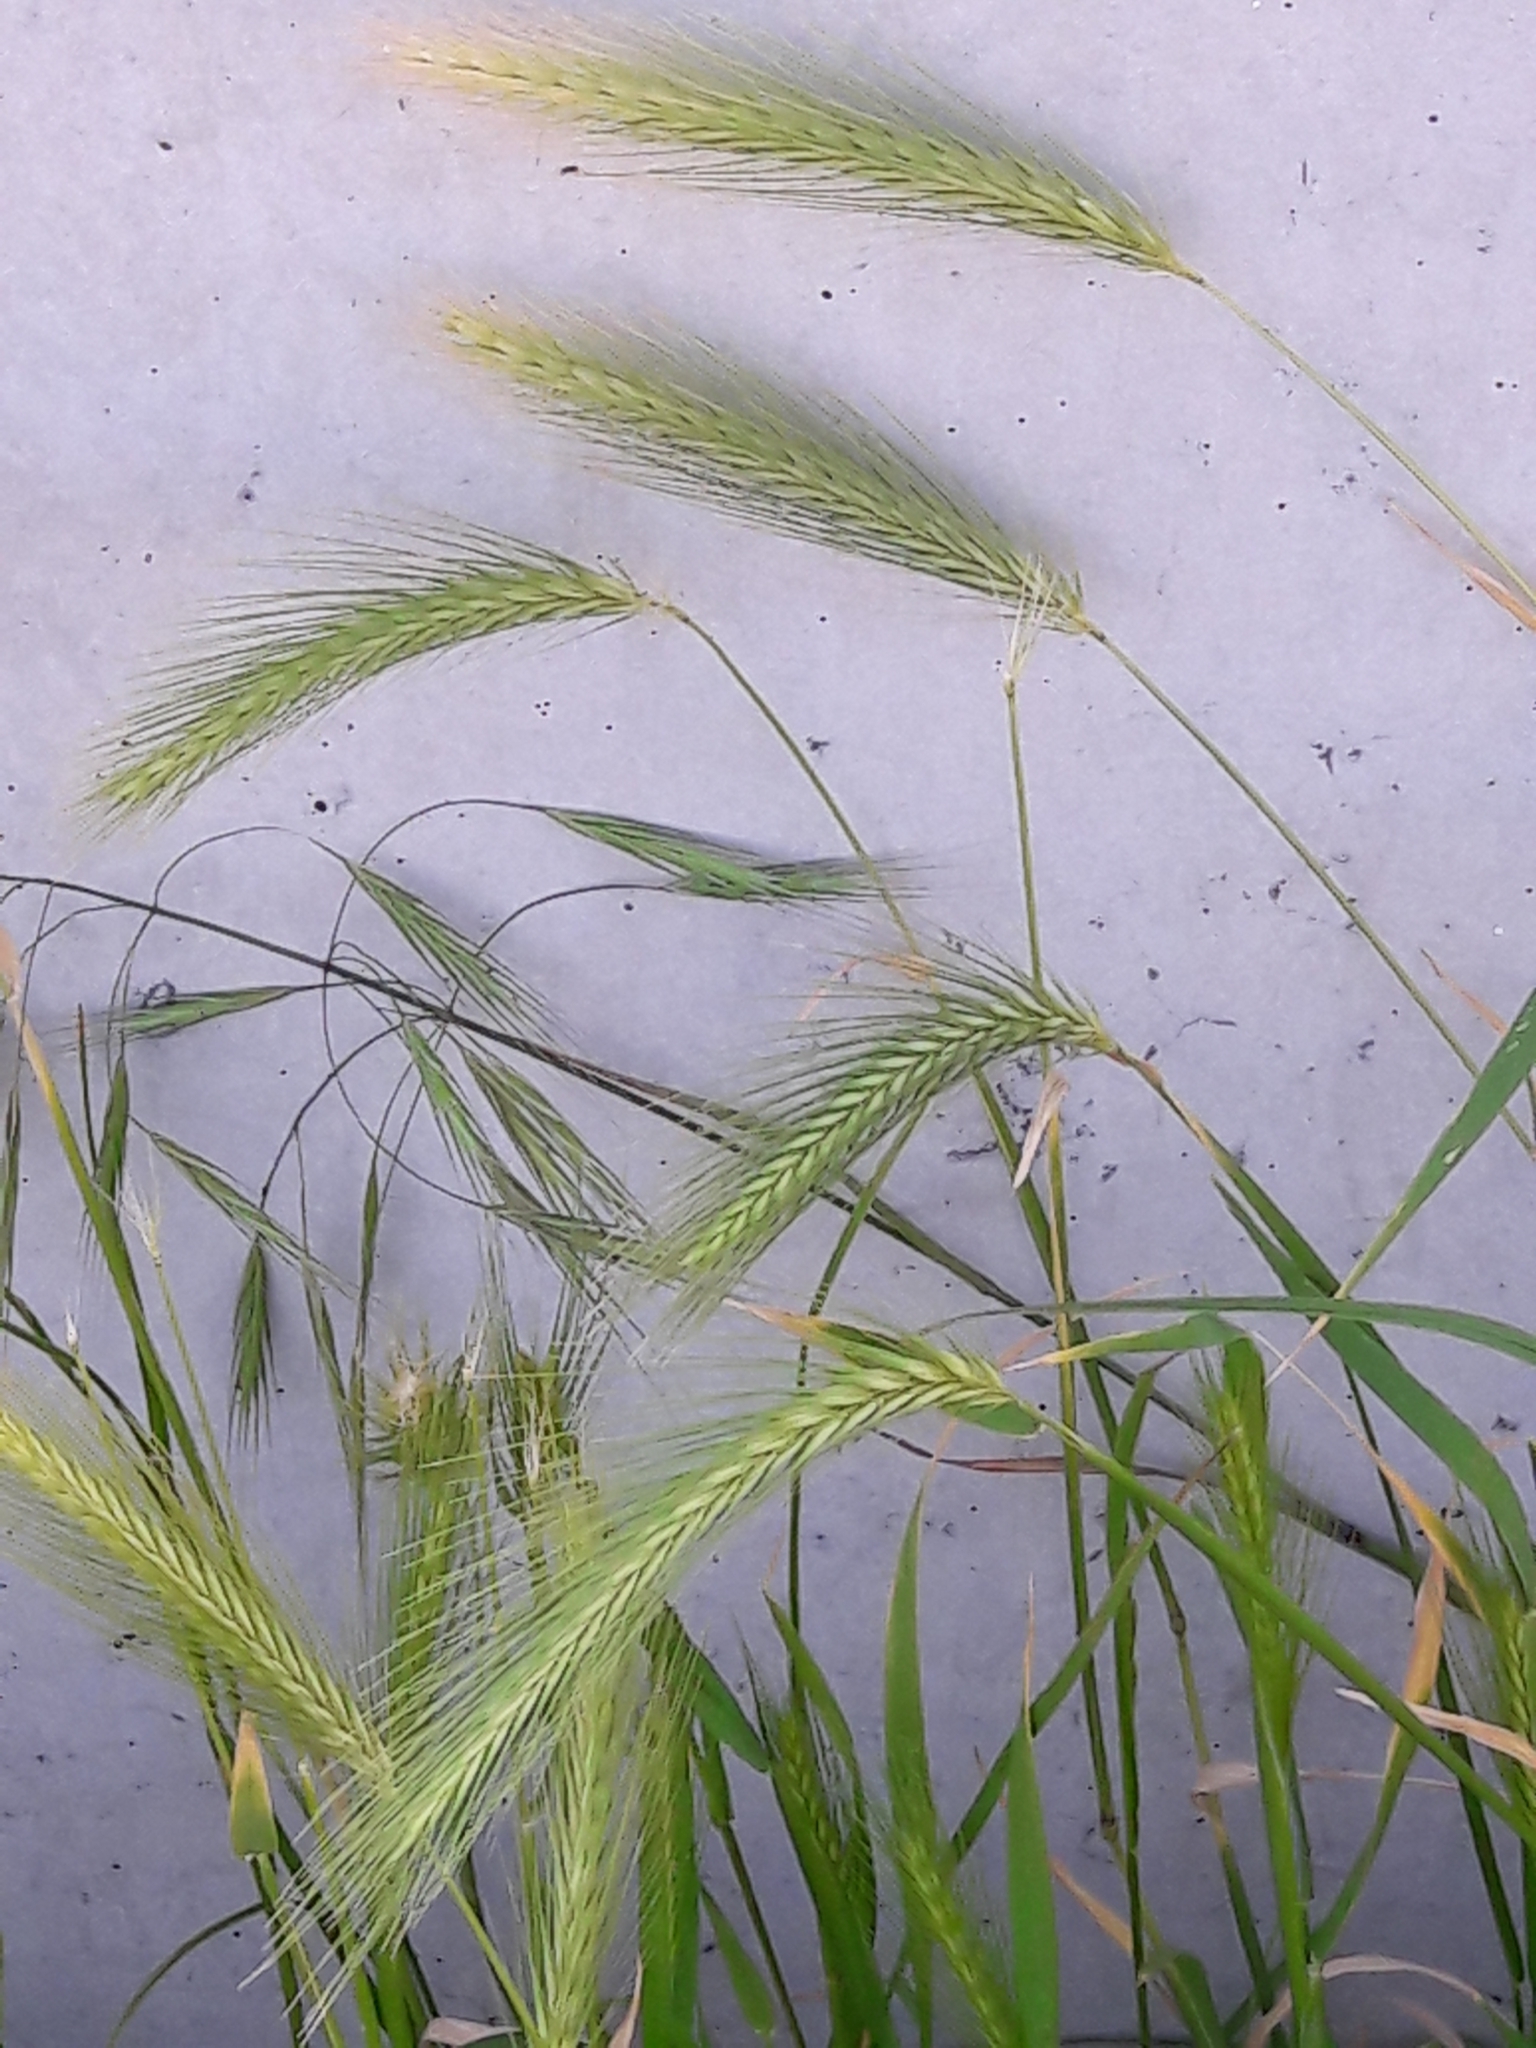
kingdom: Plantae
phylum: Tracheophyta
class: Liliopsida
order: Poales
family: Poaceae
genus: Hordeum
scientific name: Hordeum murinum
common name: Wall barley
